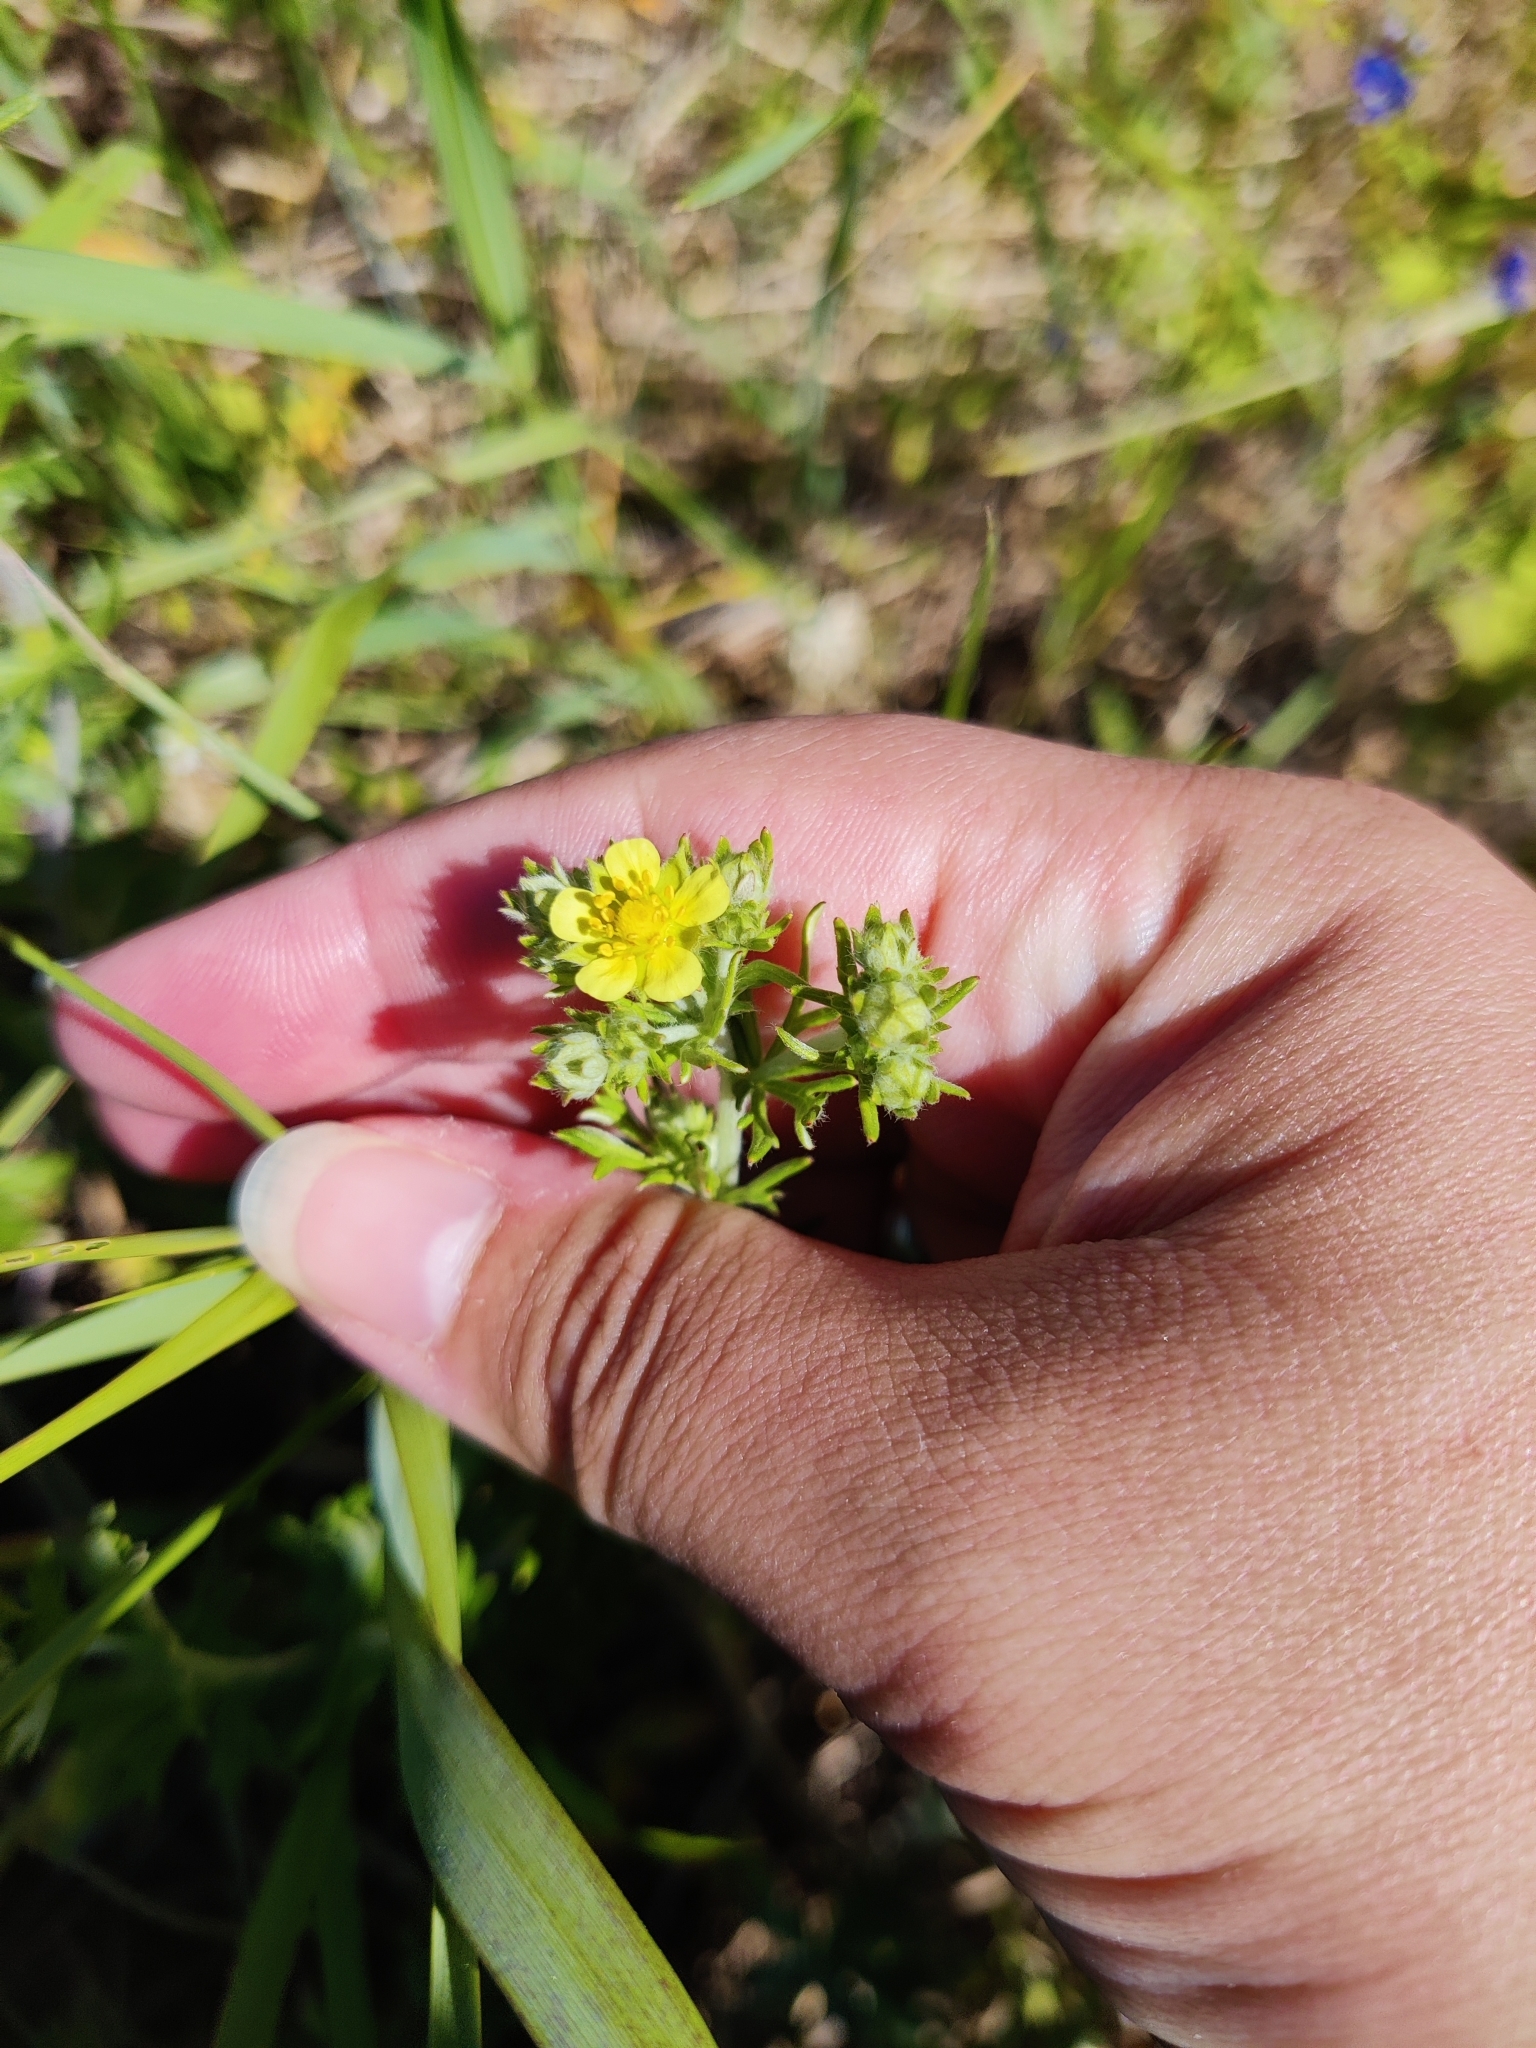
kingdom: Plantae
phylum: Tracheophyta
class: Magnoliopsida
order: Rosales
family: Rosaceae
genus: Potentilla
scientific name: Potentilla argentea
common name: Hoary cinquefoil
